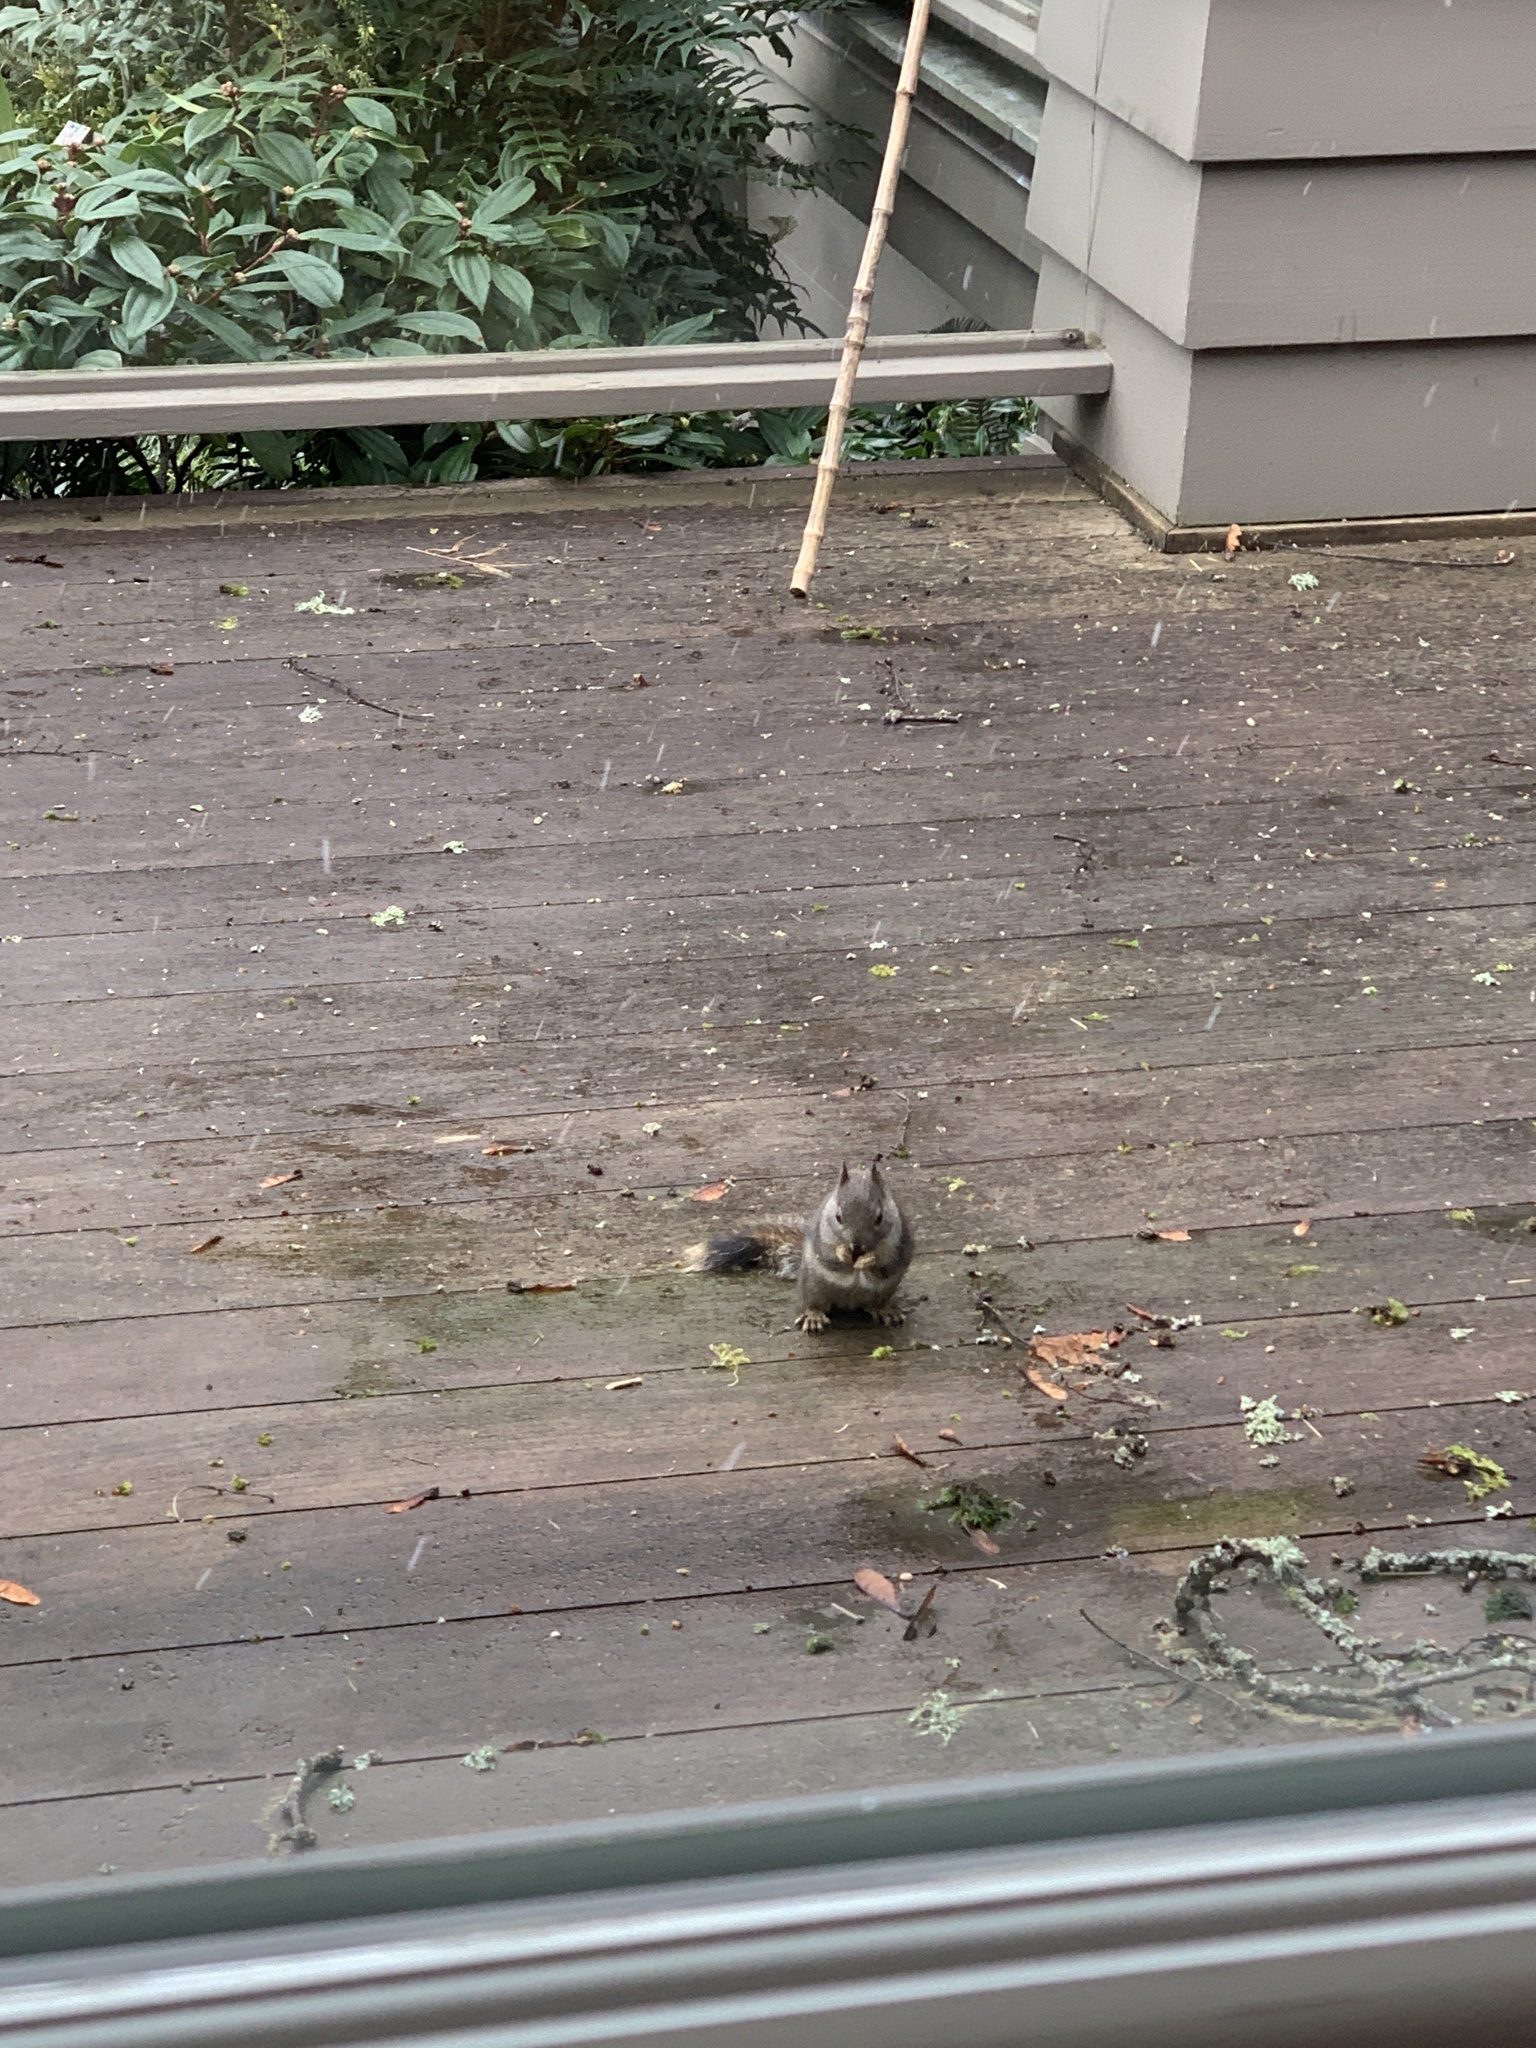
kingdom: Animalia
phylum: Chordata
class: Mammalia
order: Rodentia
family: Sciuridae
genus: Tamiasciurus
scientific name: Tamiasciurus douglasii
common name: Douglas's squirrel
